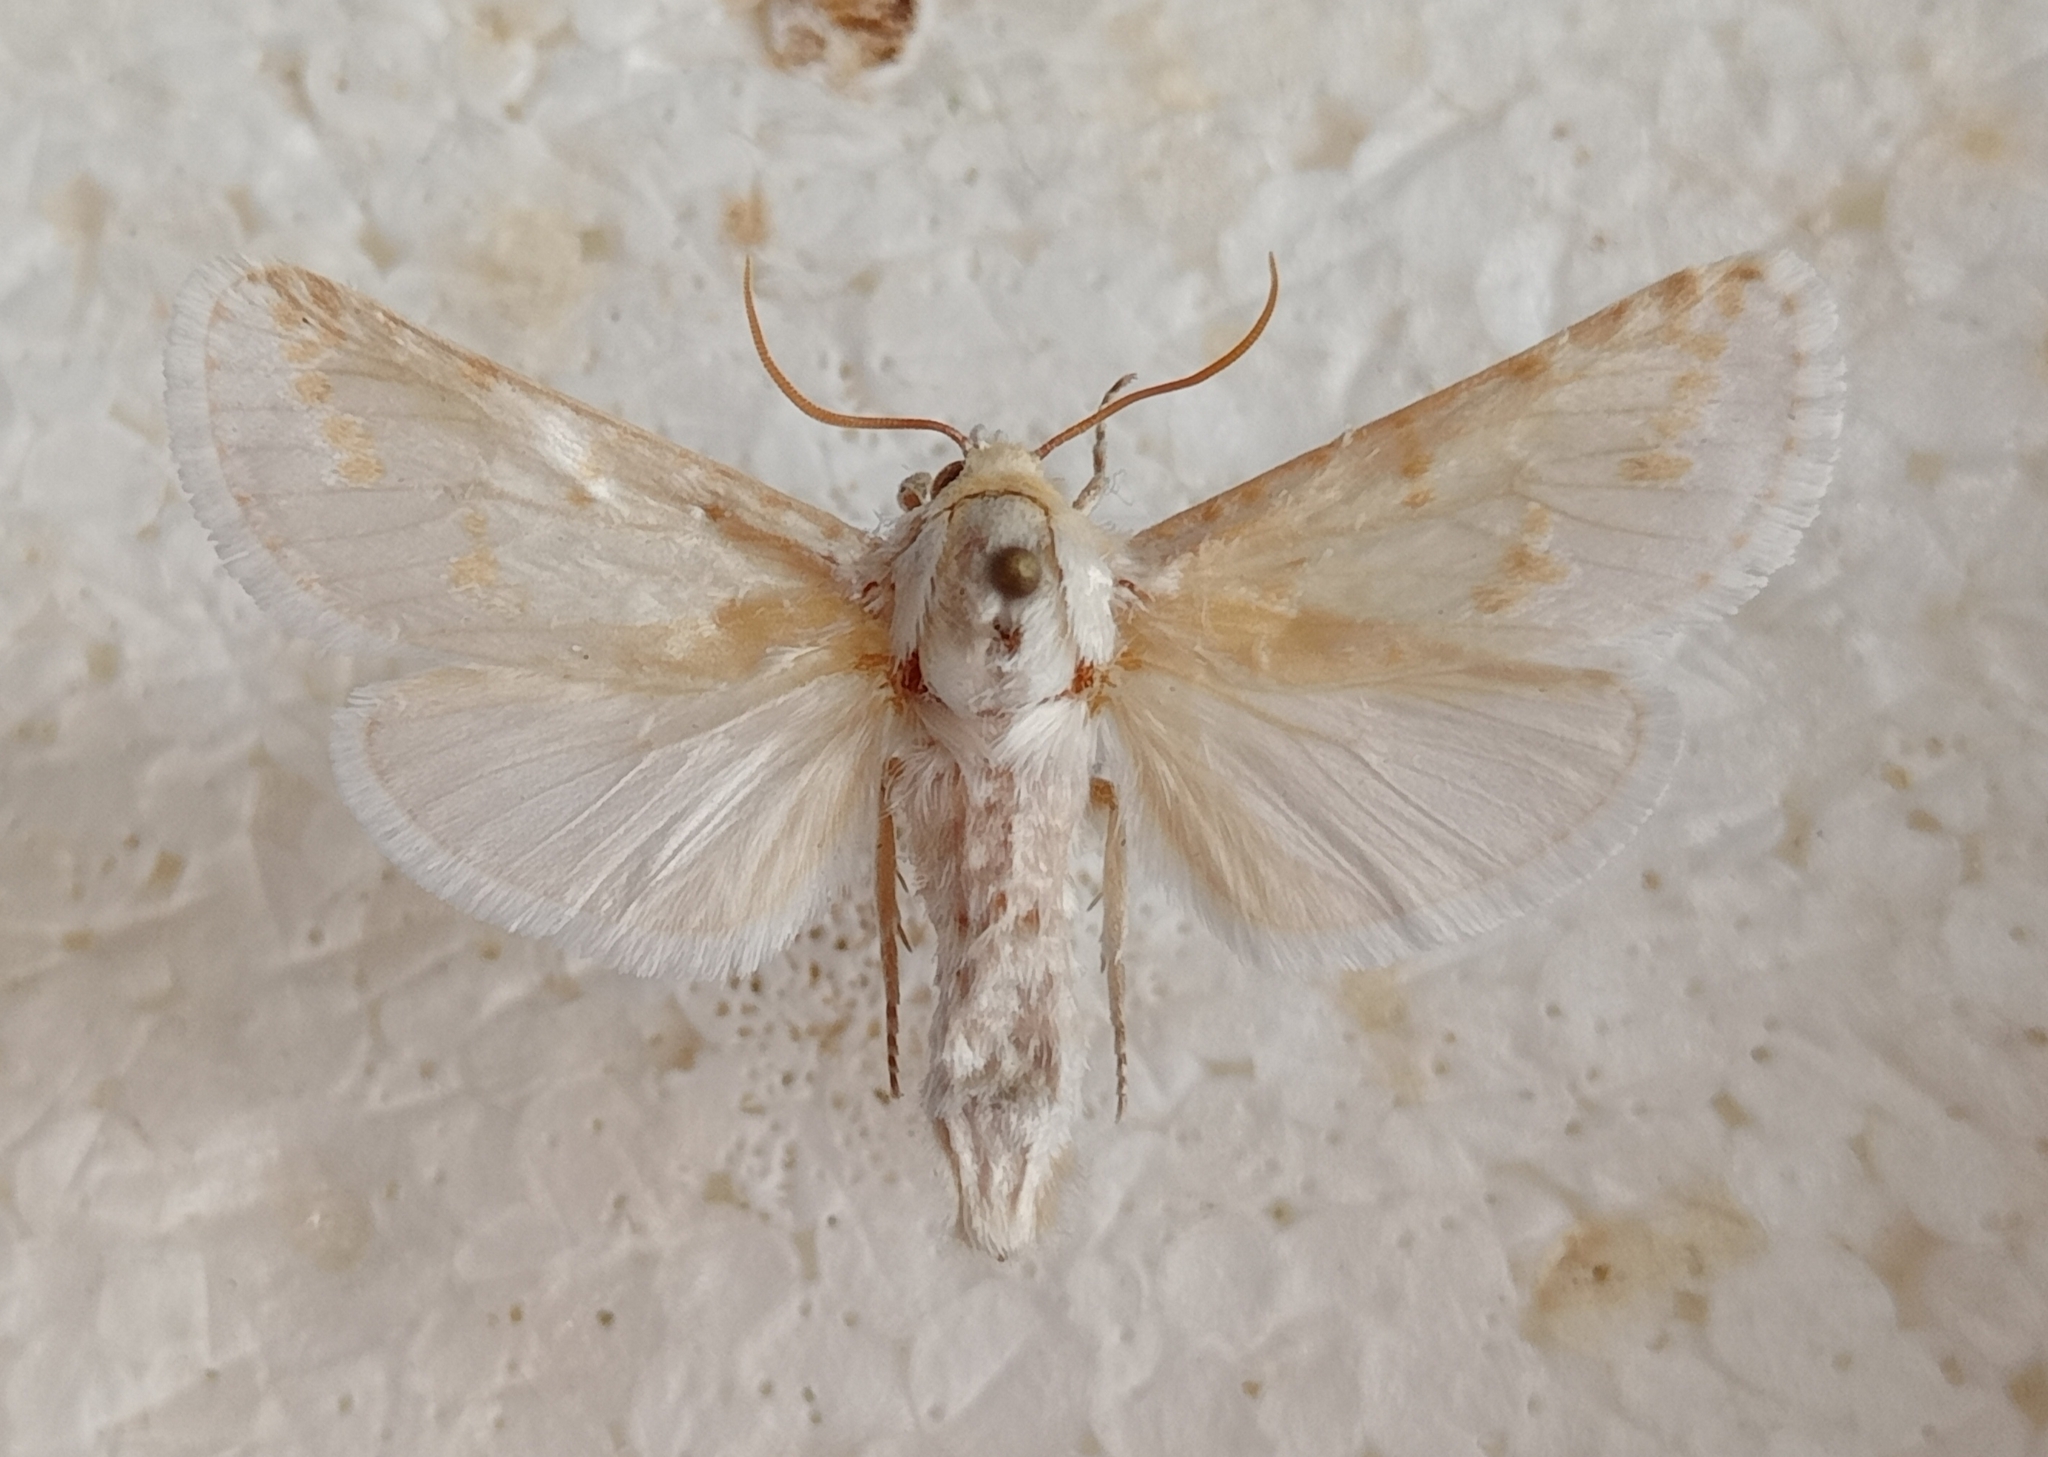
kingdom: Animalia
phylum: Arthropoda
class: Insecta
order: Lepidoptera
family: Cossidae
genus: Holcocerus
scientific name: Holcocerus gloriosus
